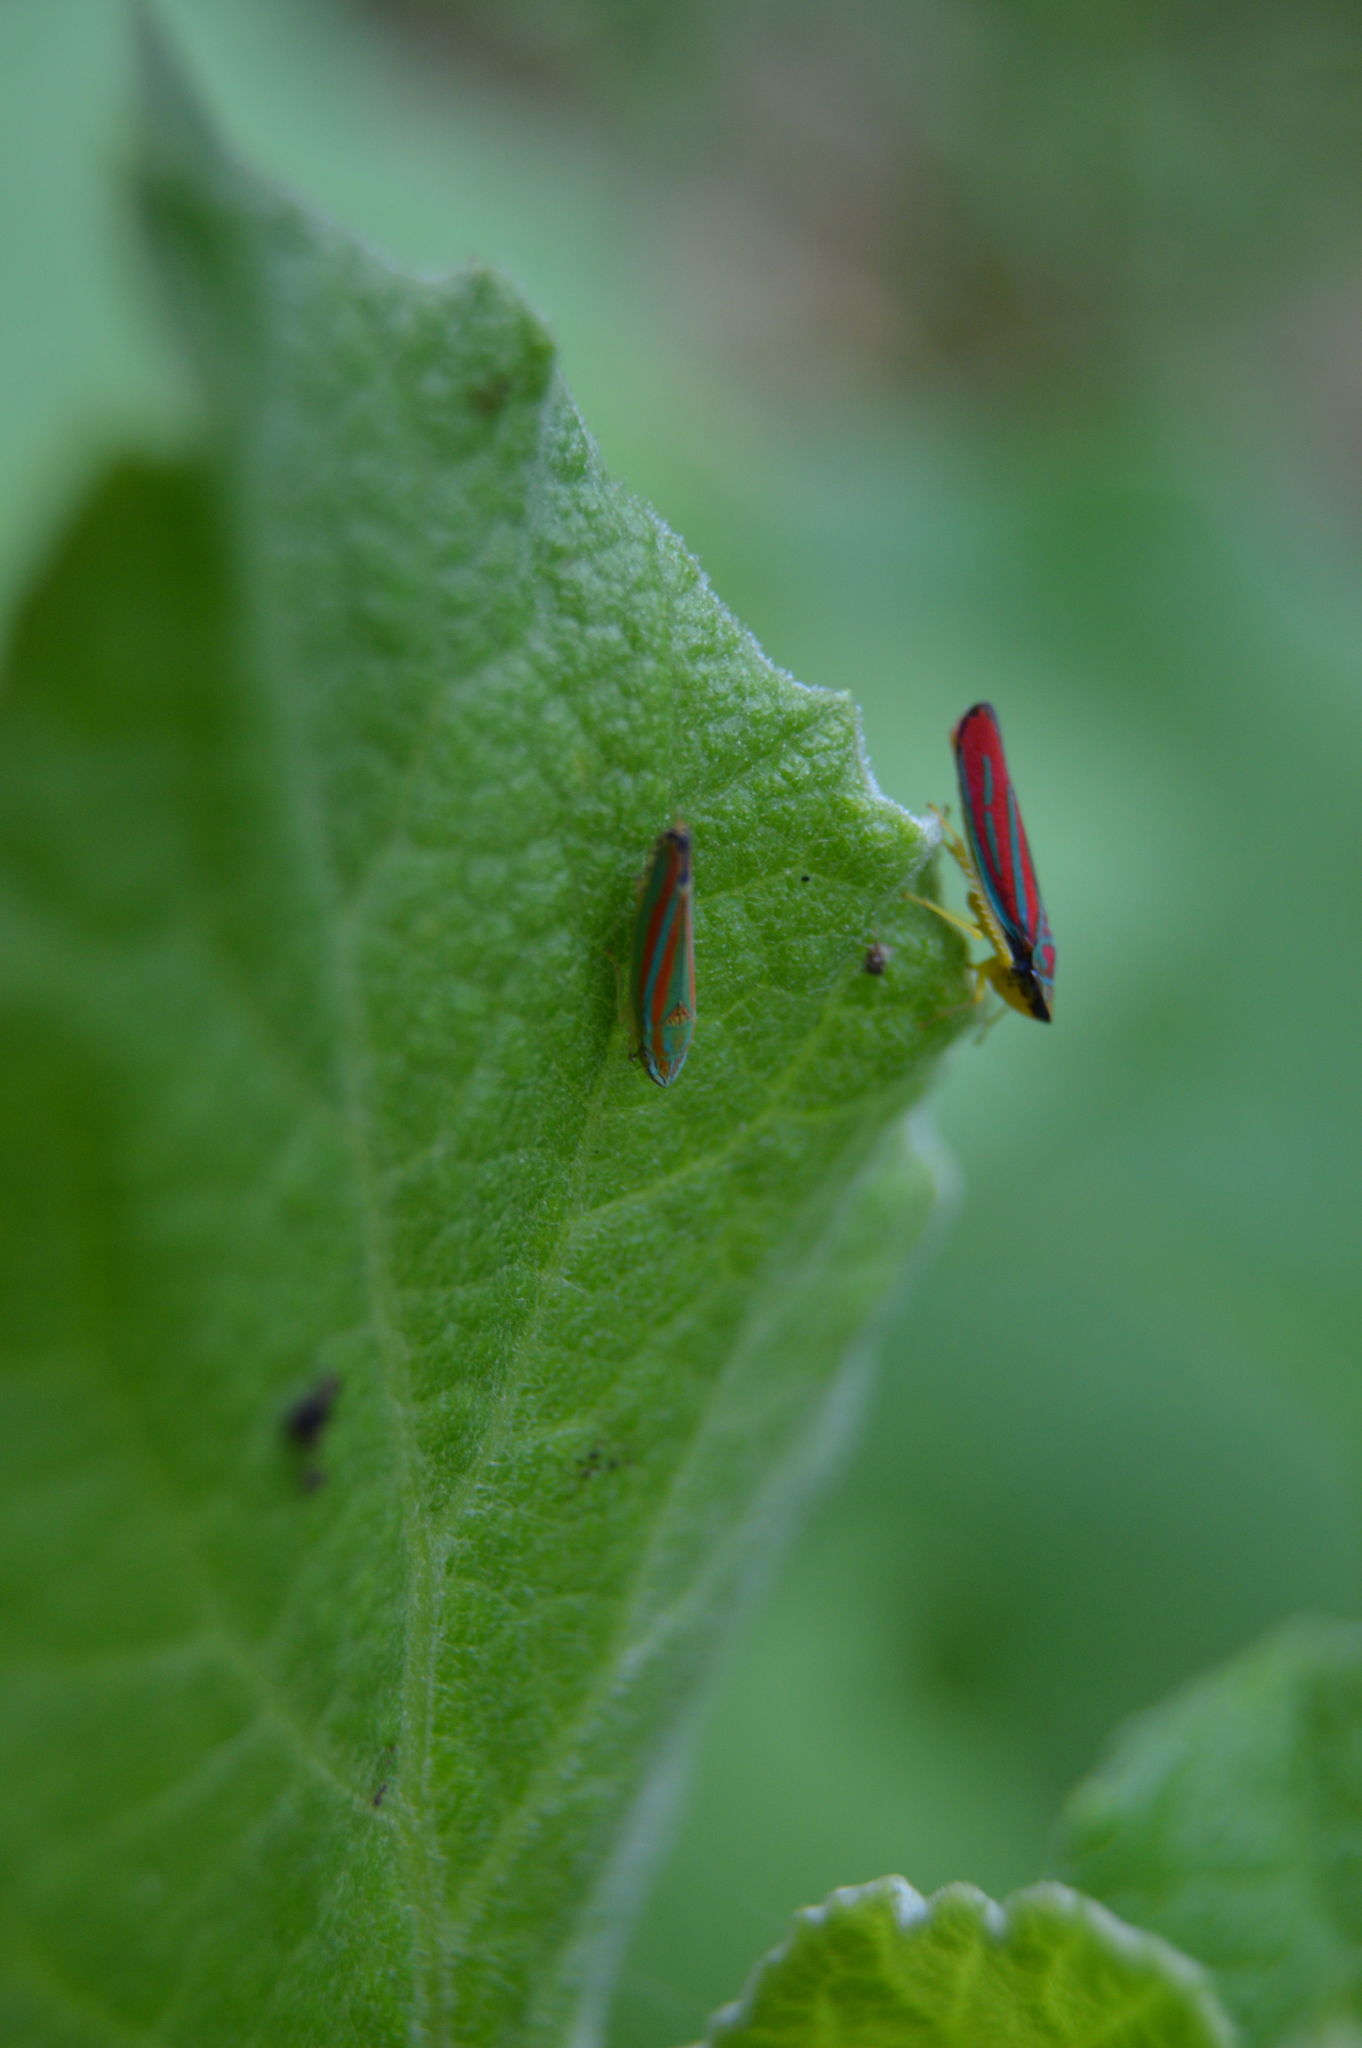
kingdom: Animalia
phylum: Arthropoda
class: Insecta
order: Hemiptera
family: Cicadellidae
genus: Graphocephala
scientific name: Graphocephala coccinea
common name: Candy-striped leafhopper
